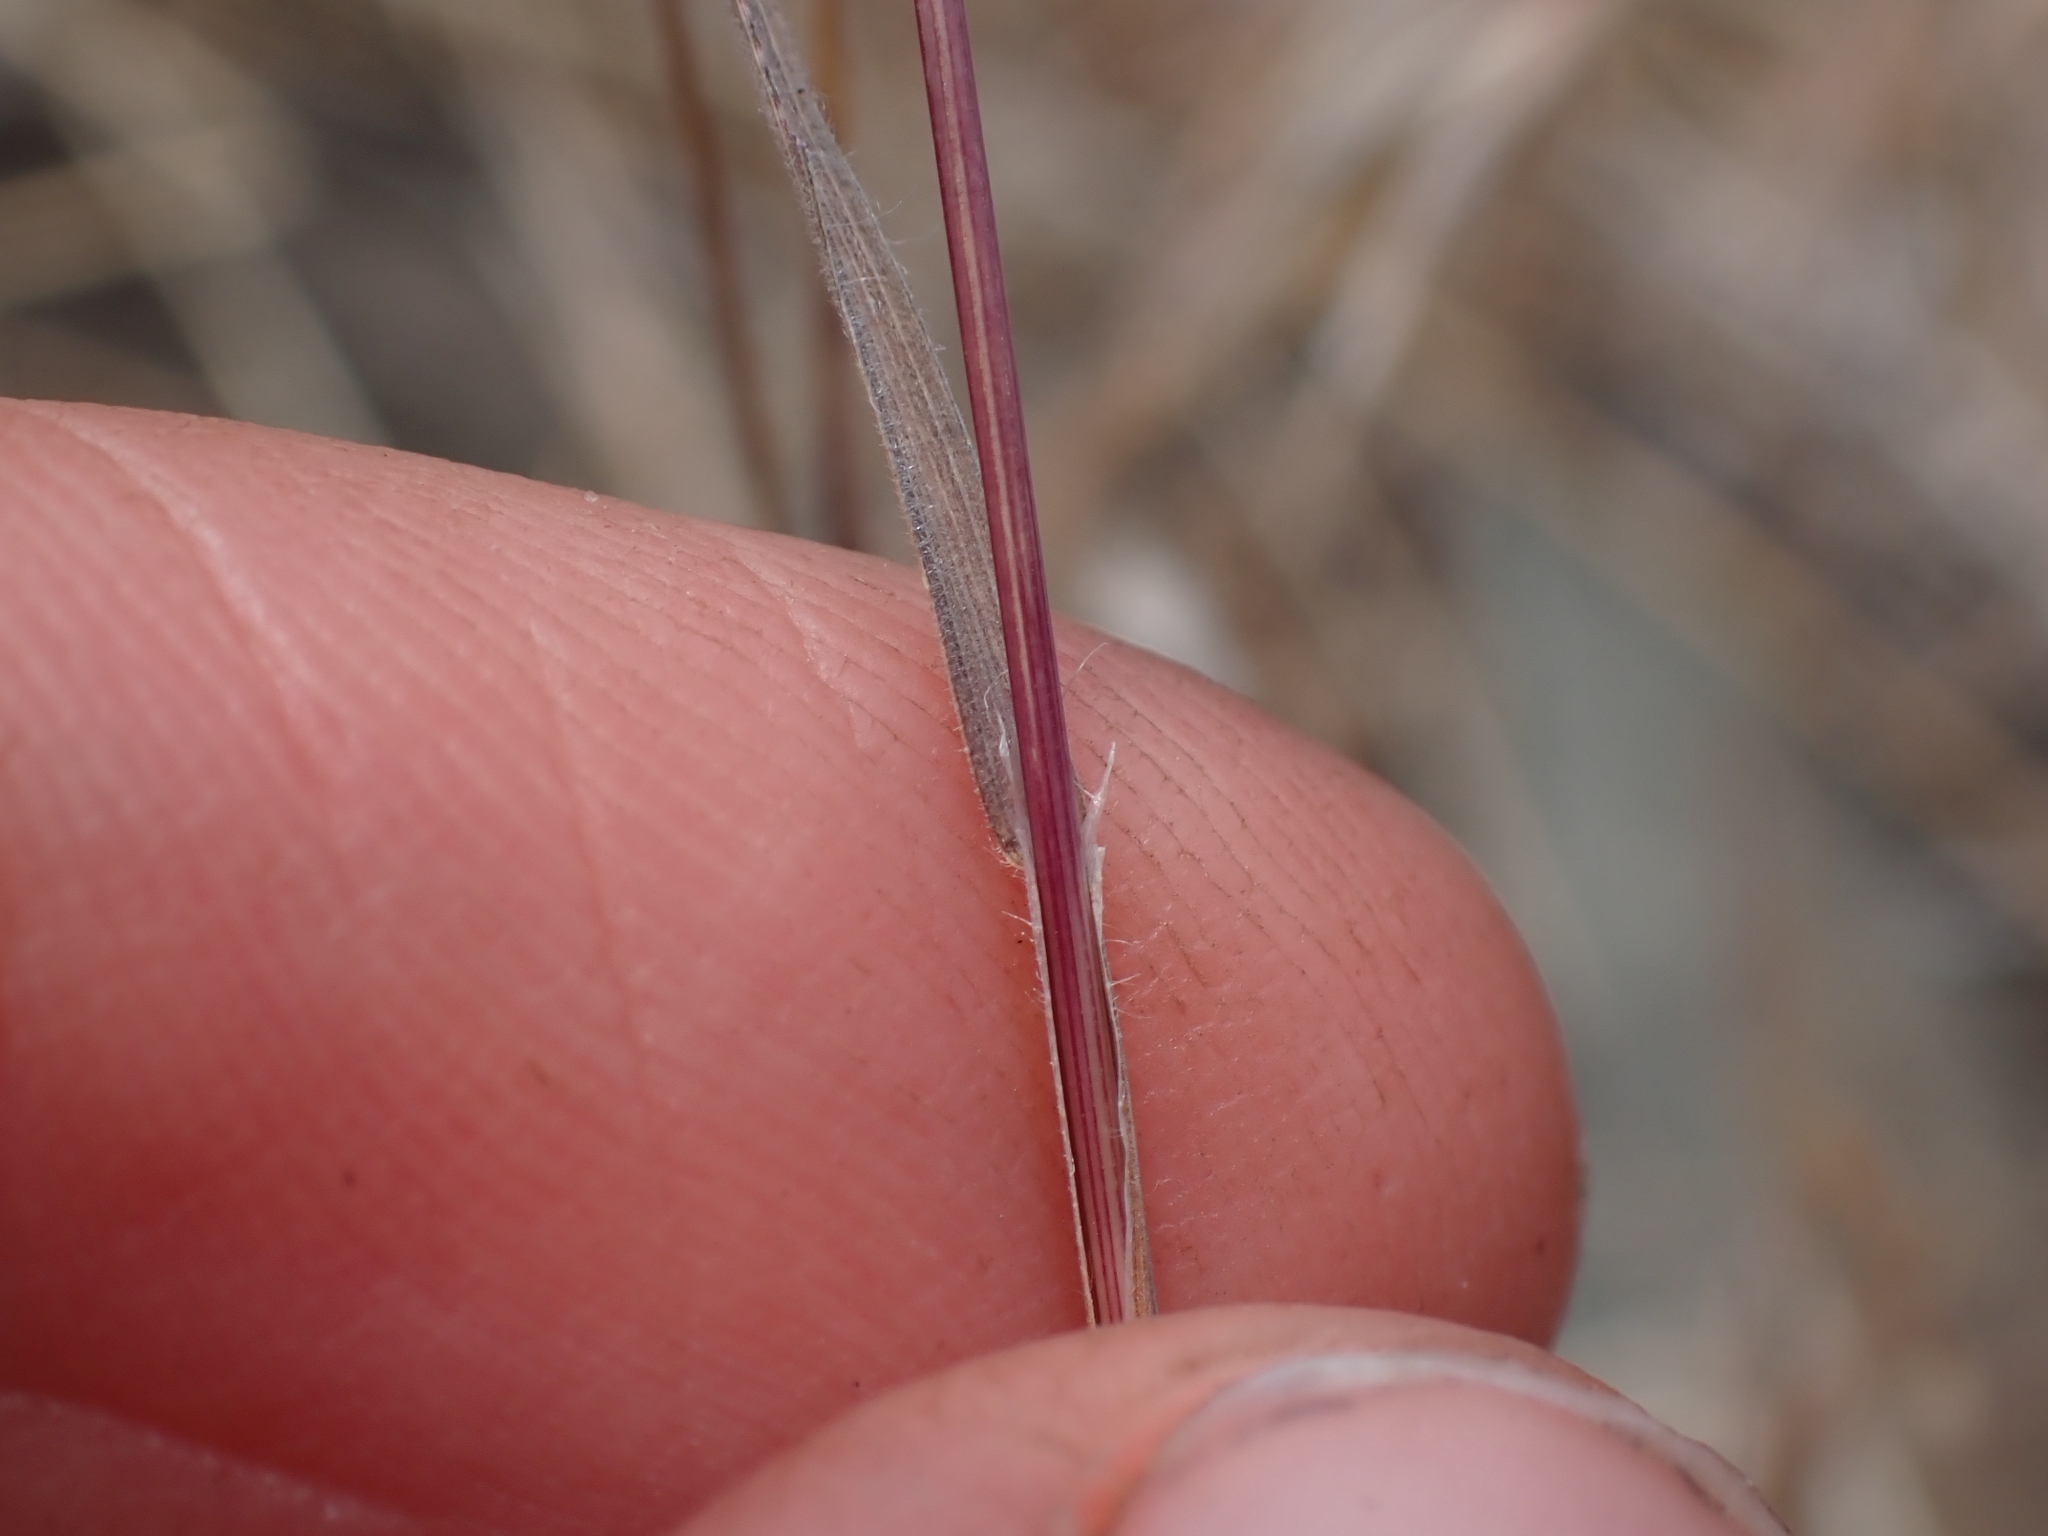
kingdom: Plantae
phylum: Tracheophyta
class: Liliopsida
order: Poales
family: Poaceae
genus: Bromus
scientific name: Bromus tectorum
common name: Cheatgrass
